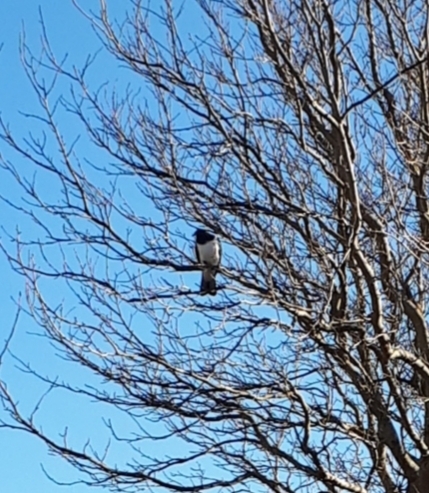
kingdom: Animalia
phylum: Chordata
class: Aves
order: Columbiformes
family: Columbidae
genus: Hemiphaga
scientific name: Hemiphaga novaeseelandiae
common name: New zealand pigeon
